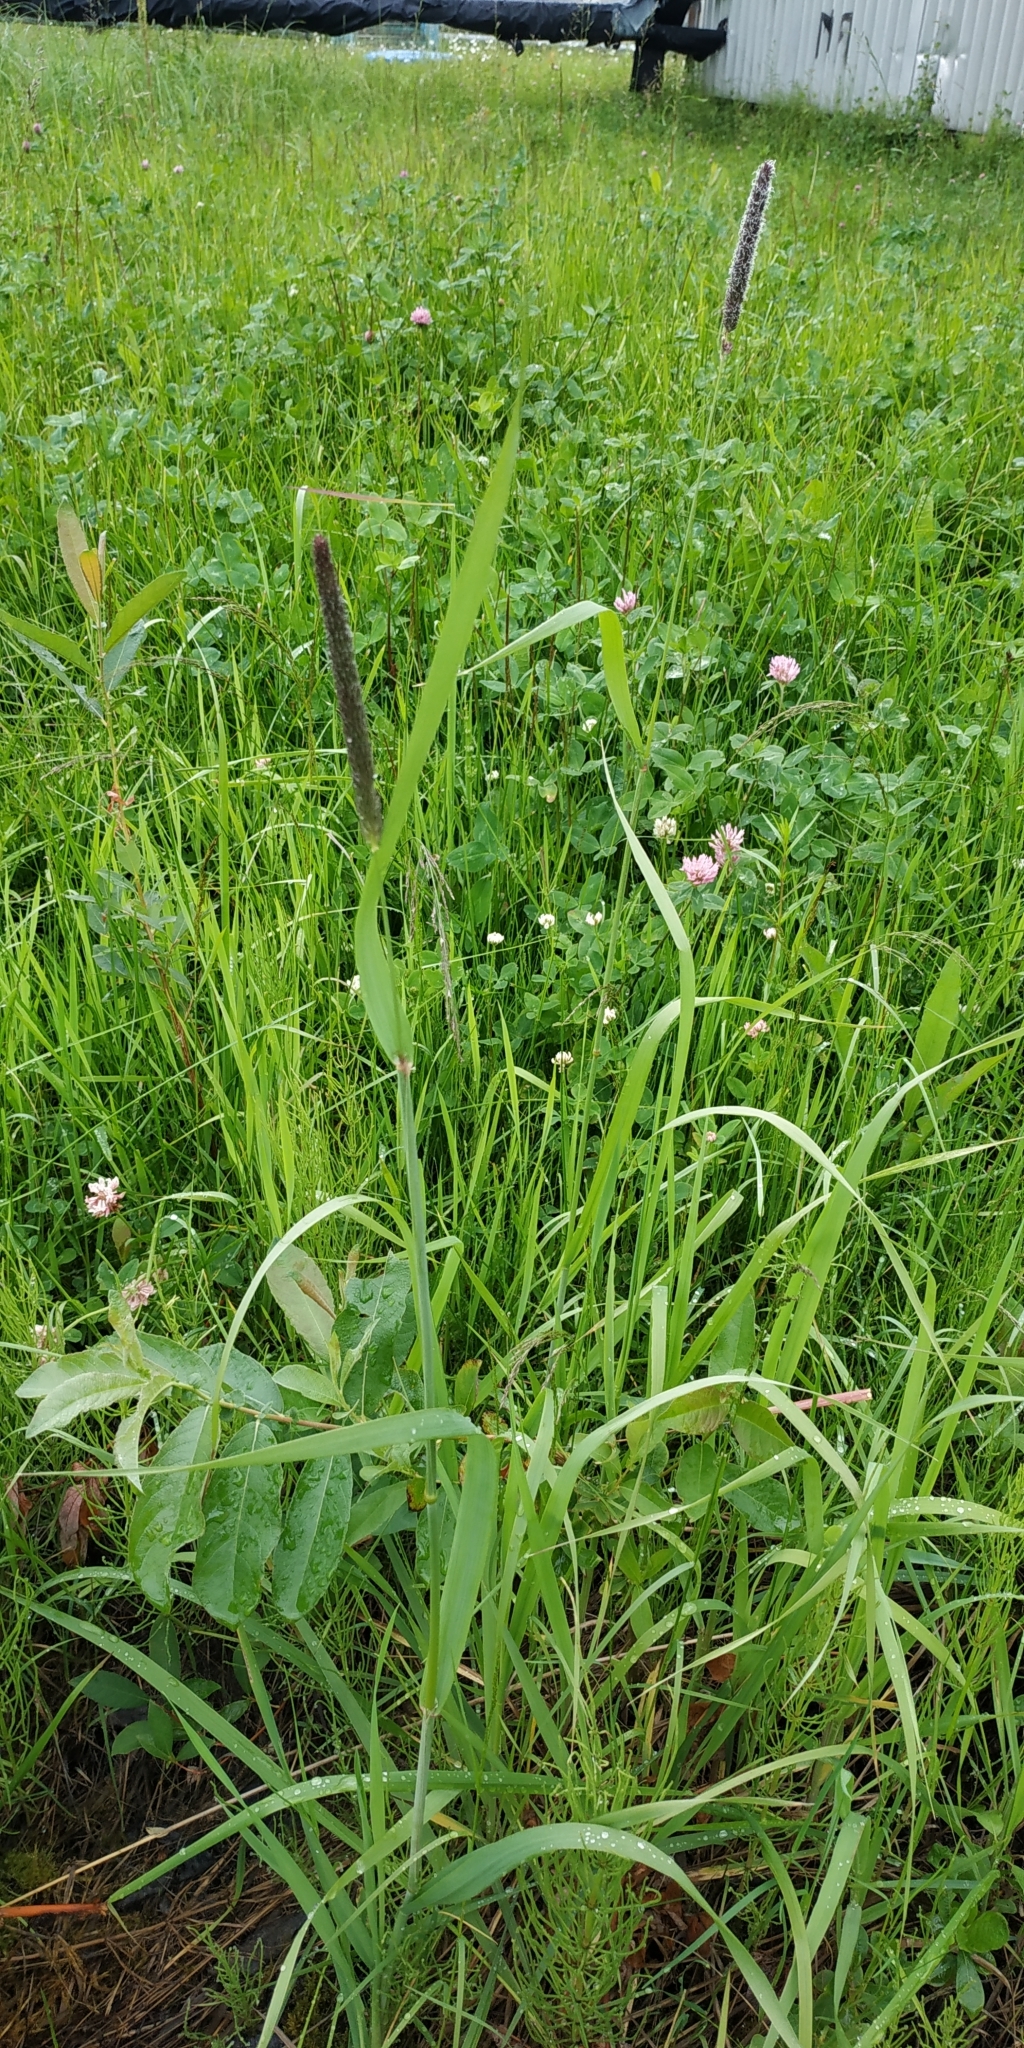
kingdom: Plantae
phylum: Tracheophyta
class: Liliopsida
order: Poales
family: Poaceae
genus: Phleum
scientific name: Phleum pratense
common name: Timothy grass
